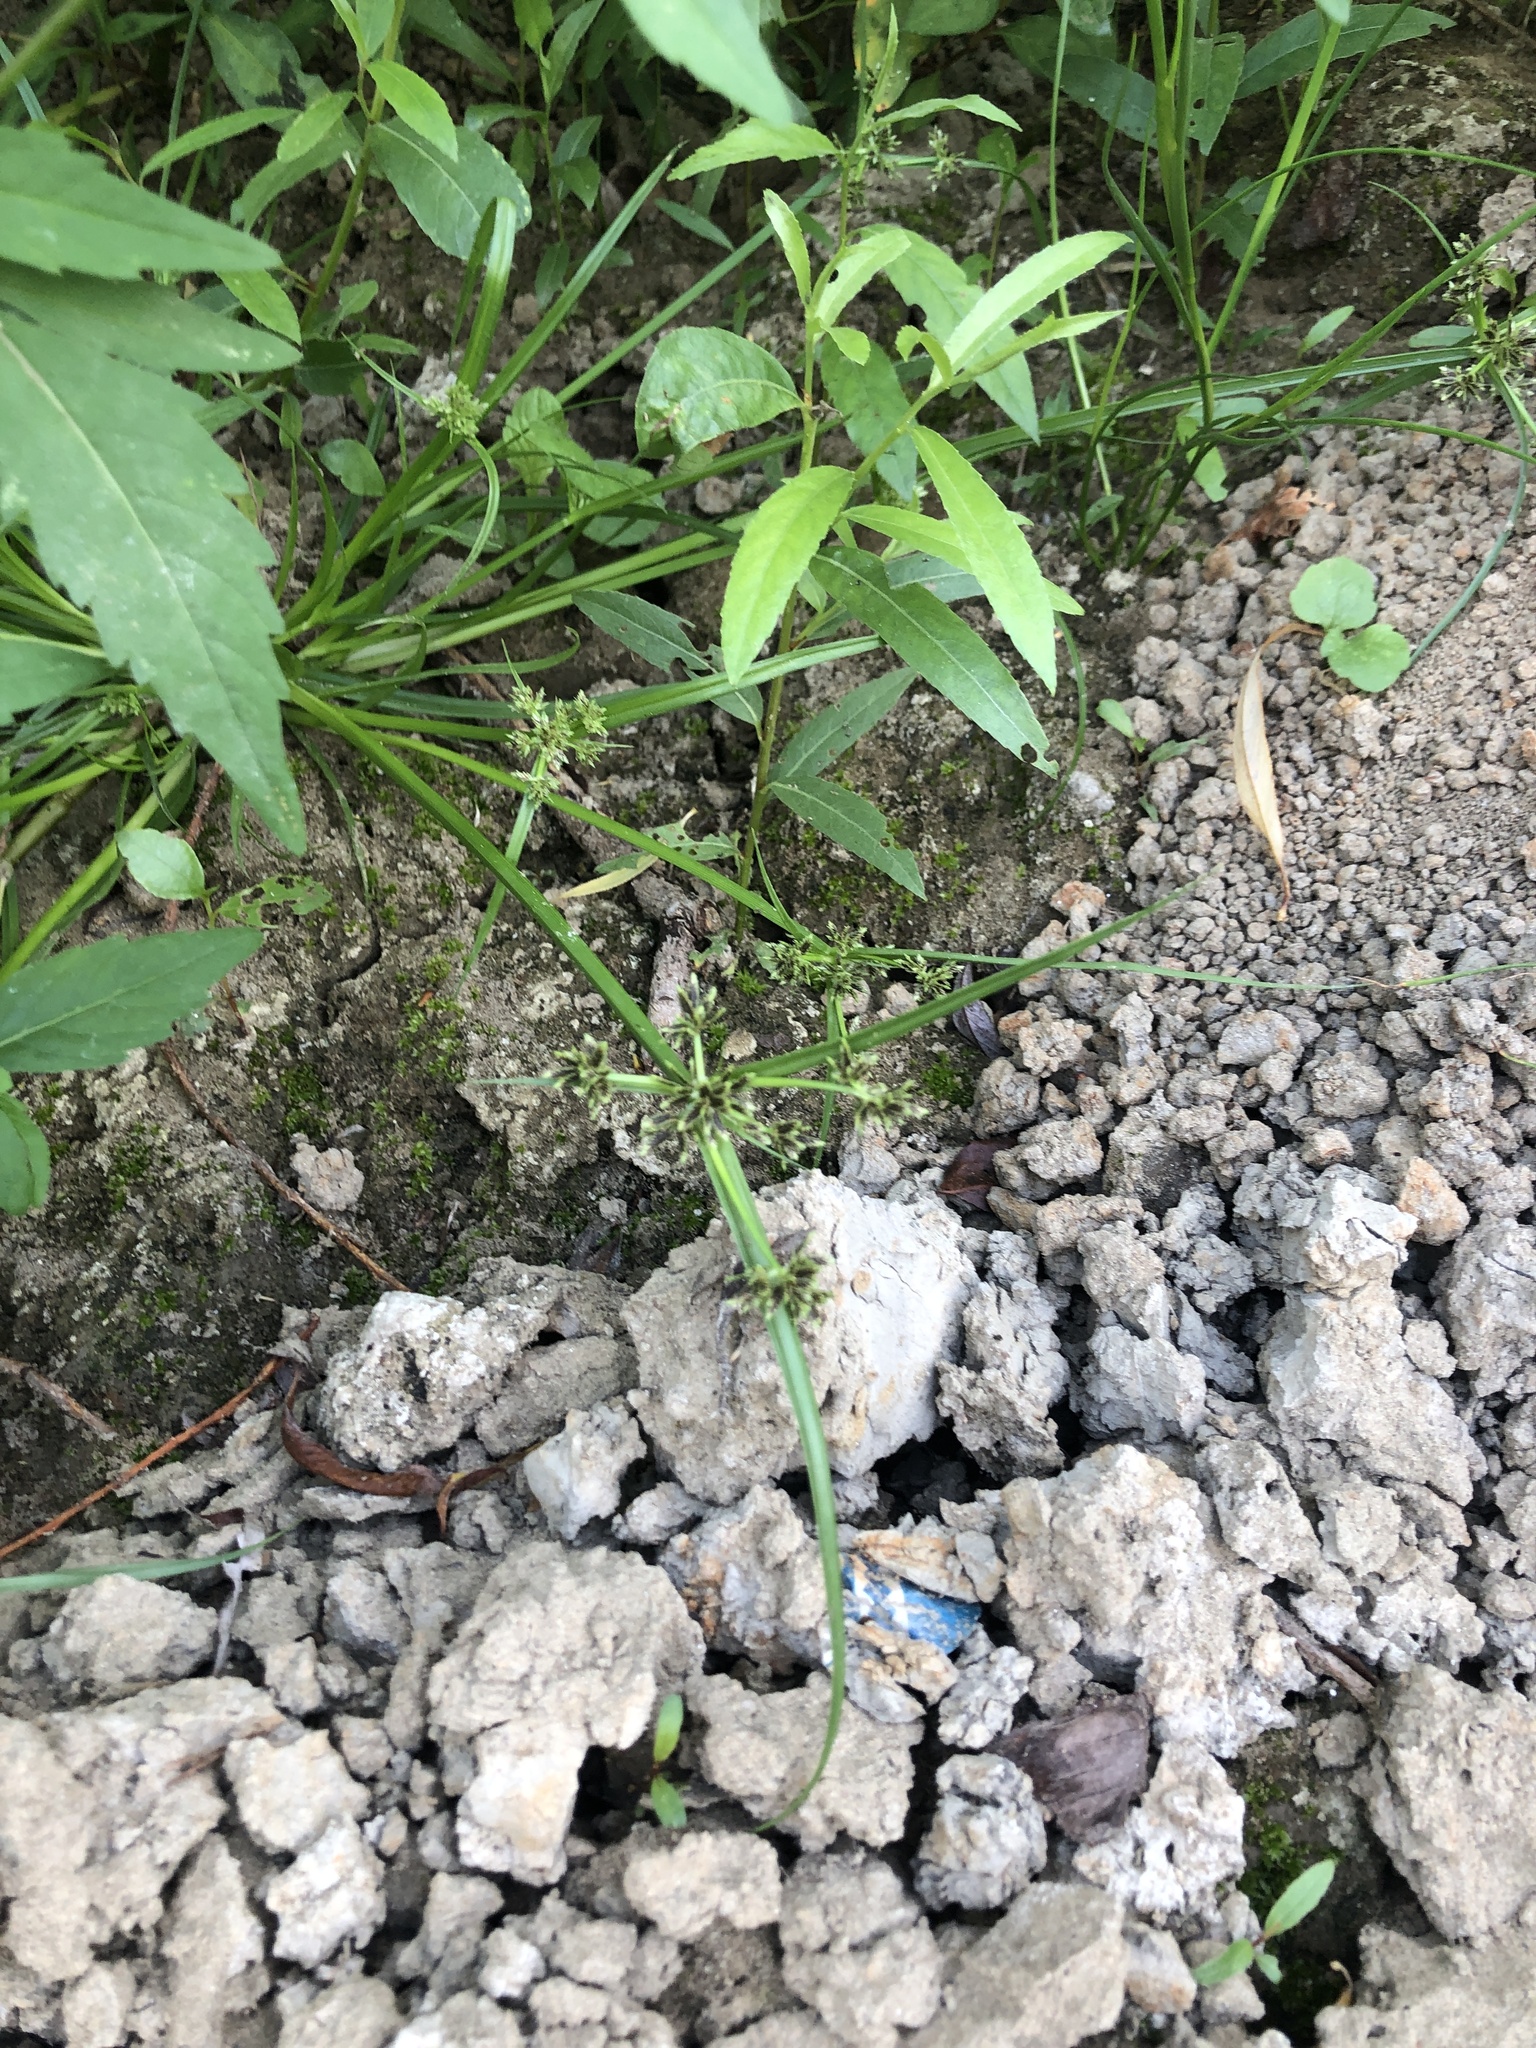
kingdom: Plantae
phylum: Tracheophyta
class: Liliopsida
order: Poales
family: Cyperaceae
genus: Cyperus
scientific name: Cyperus fuscus
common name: Brown galingale
